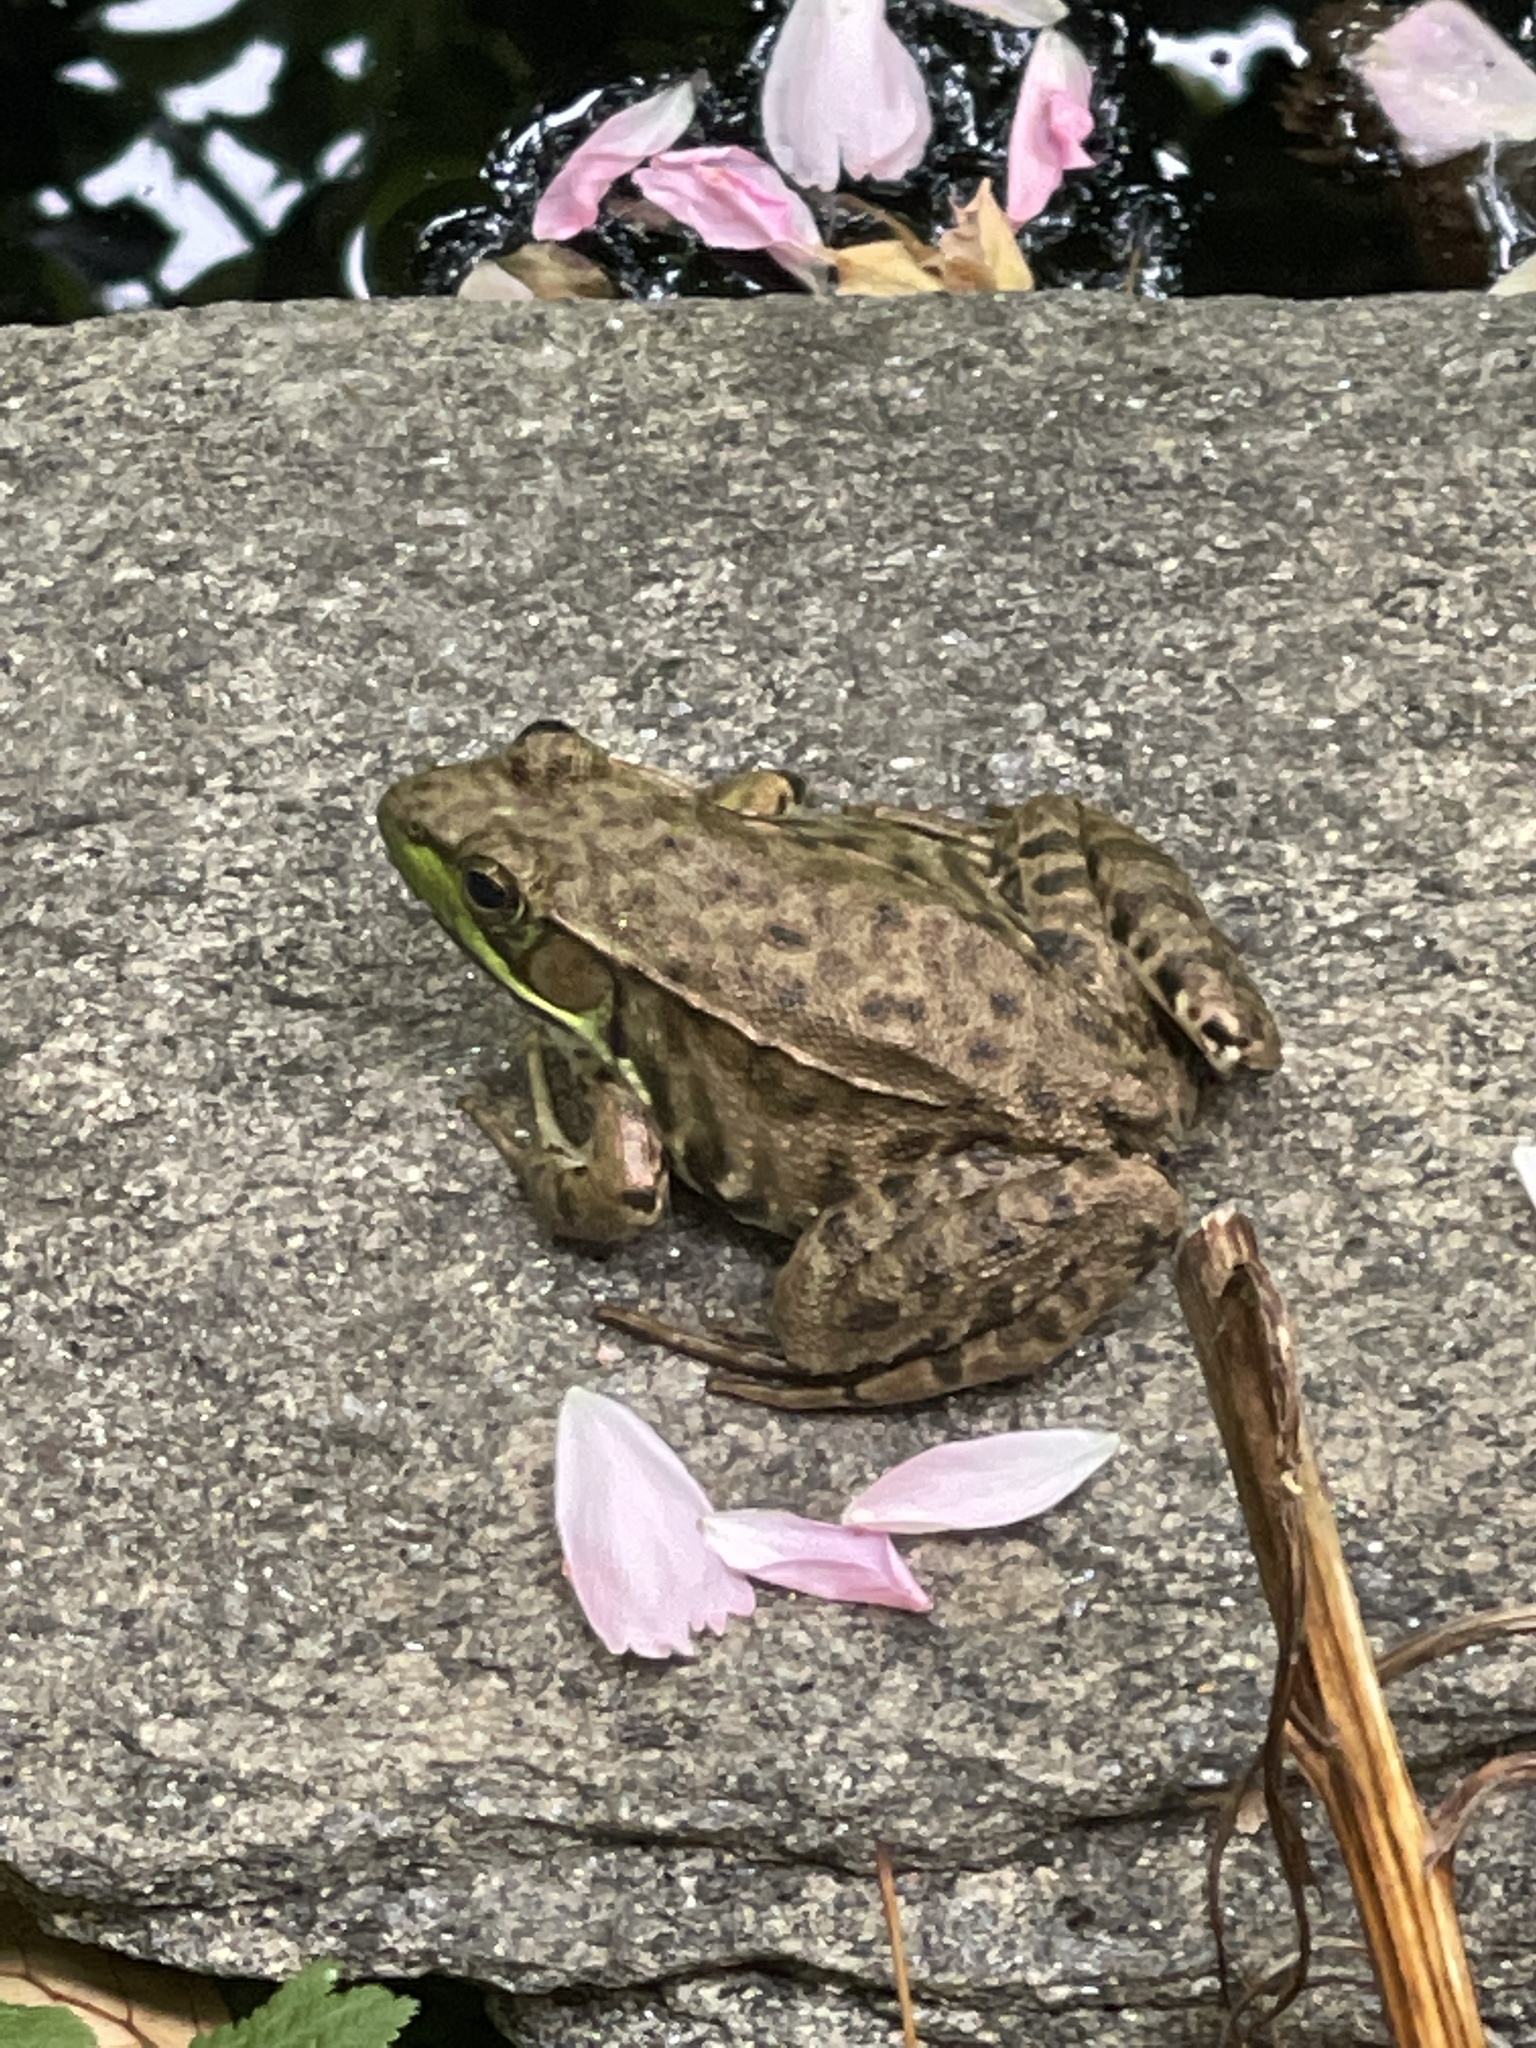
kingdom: Animalia
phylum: Chordata
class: Amphibia
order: Anura
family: Ranidae
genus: Lithobates
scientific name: Lithobates clamitans
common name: Green frog
